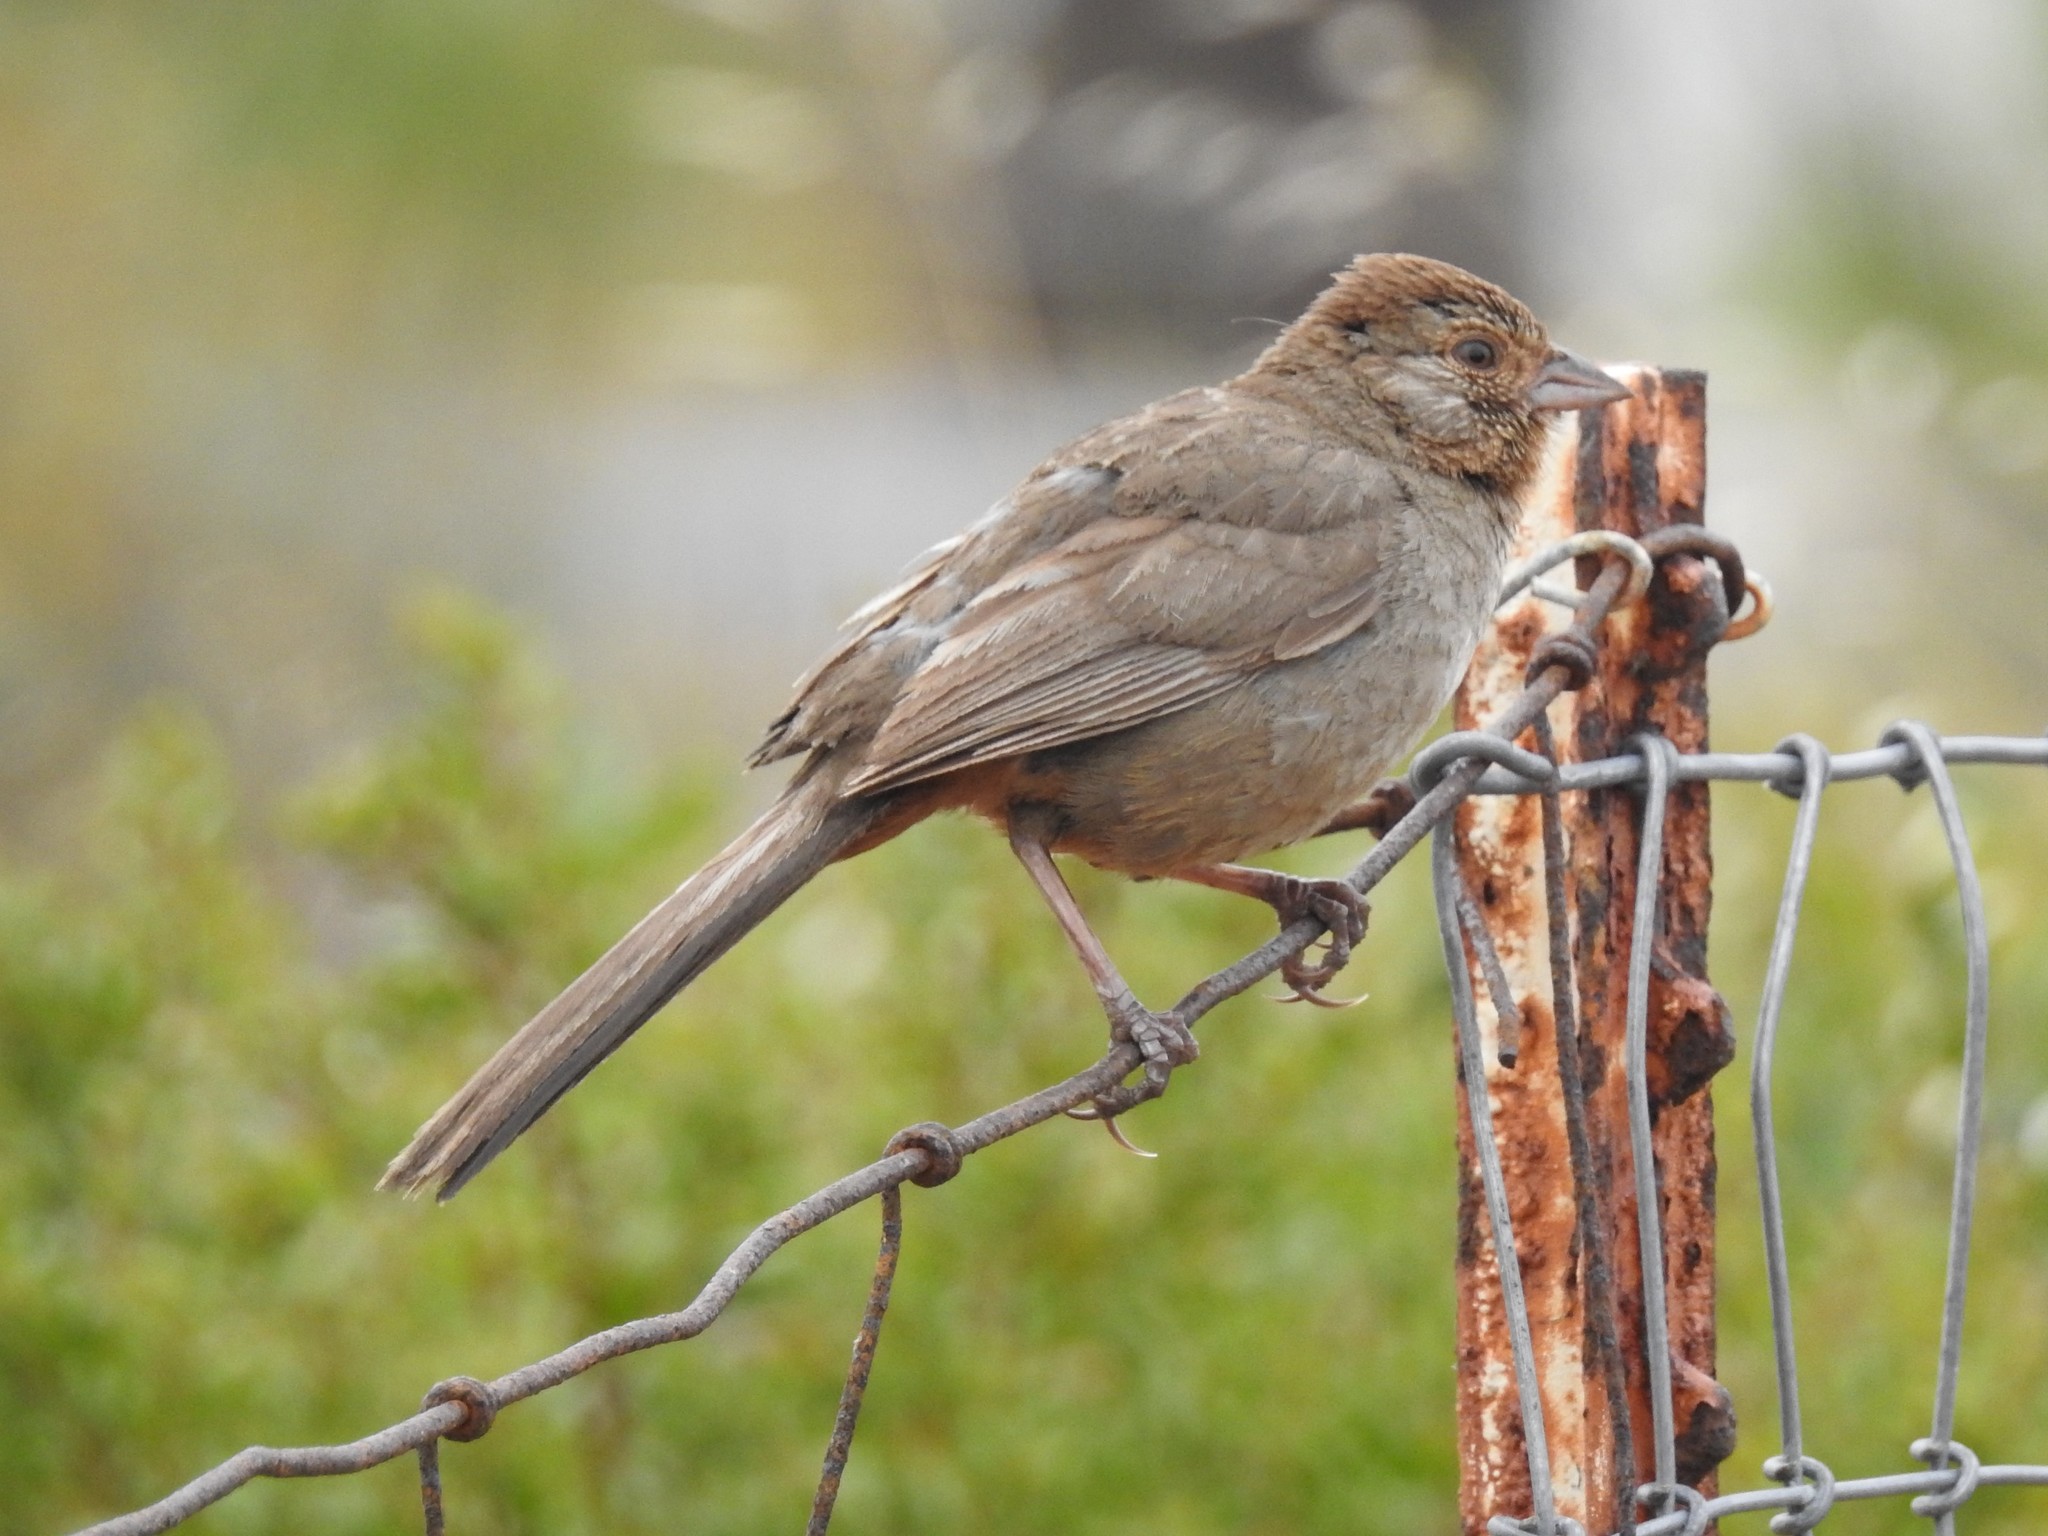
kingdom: Animalia
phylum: Chordata
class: Aves
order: Passeriformes
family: Passerellidae
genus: Melozone
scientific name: Melozone crissalis
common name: California towhee
